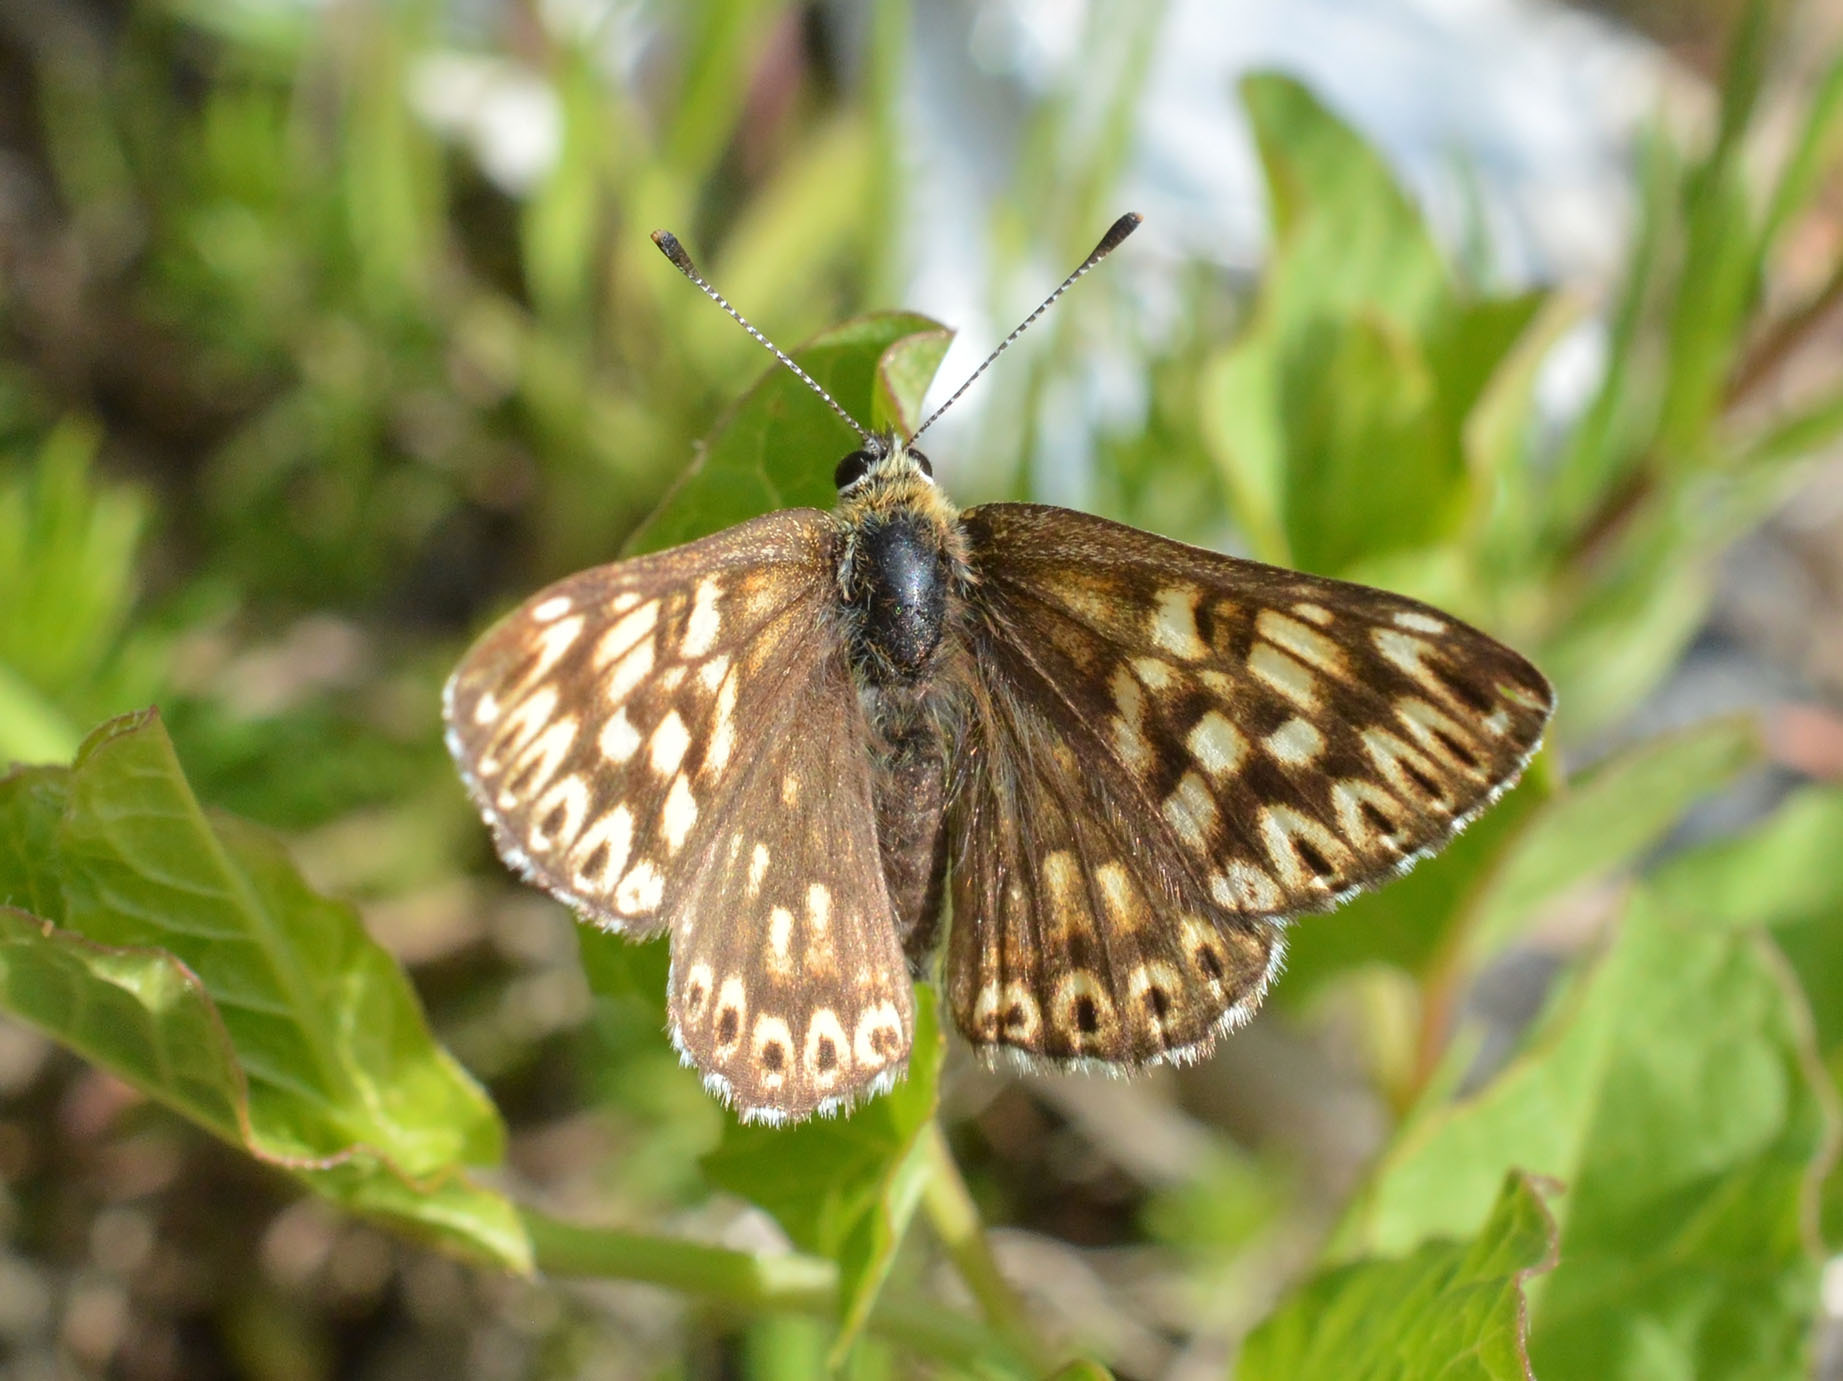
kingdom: Animalia
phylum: Arthropoda
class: Insecta
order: Lepidoptera
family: Riodinidae
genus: Hamearis
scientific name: Hamearis lucina
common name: Duke of burgundy fritillary
